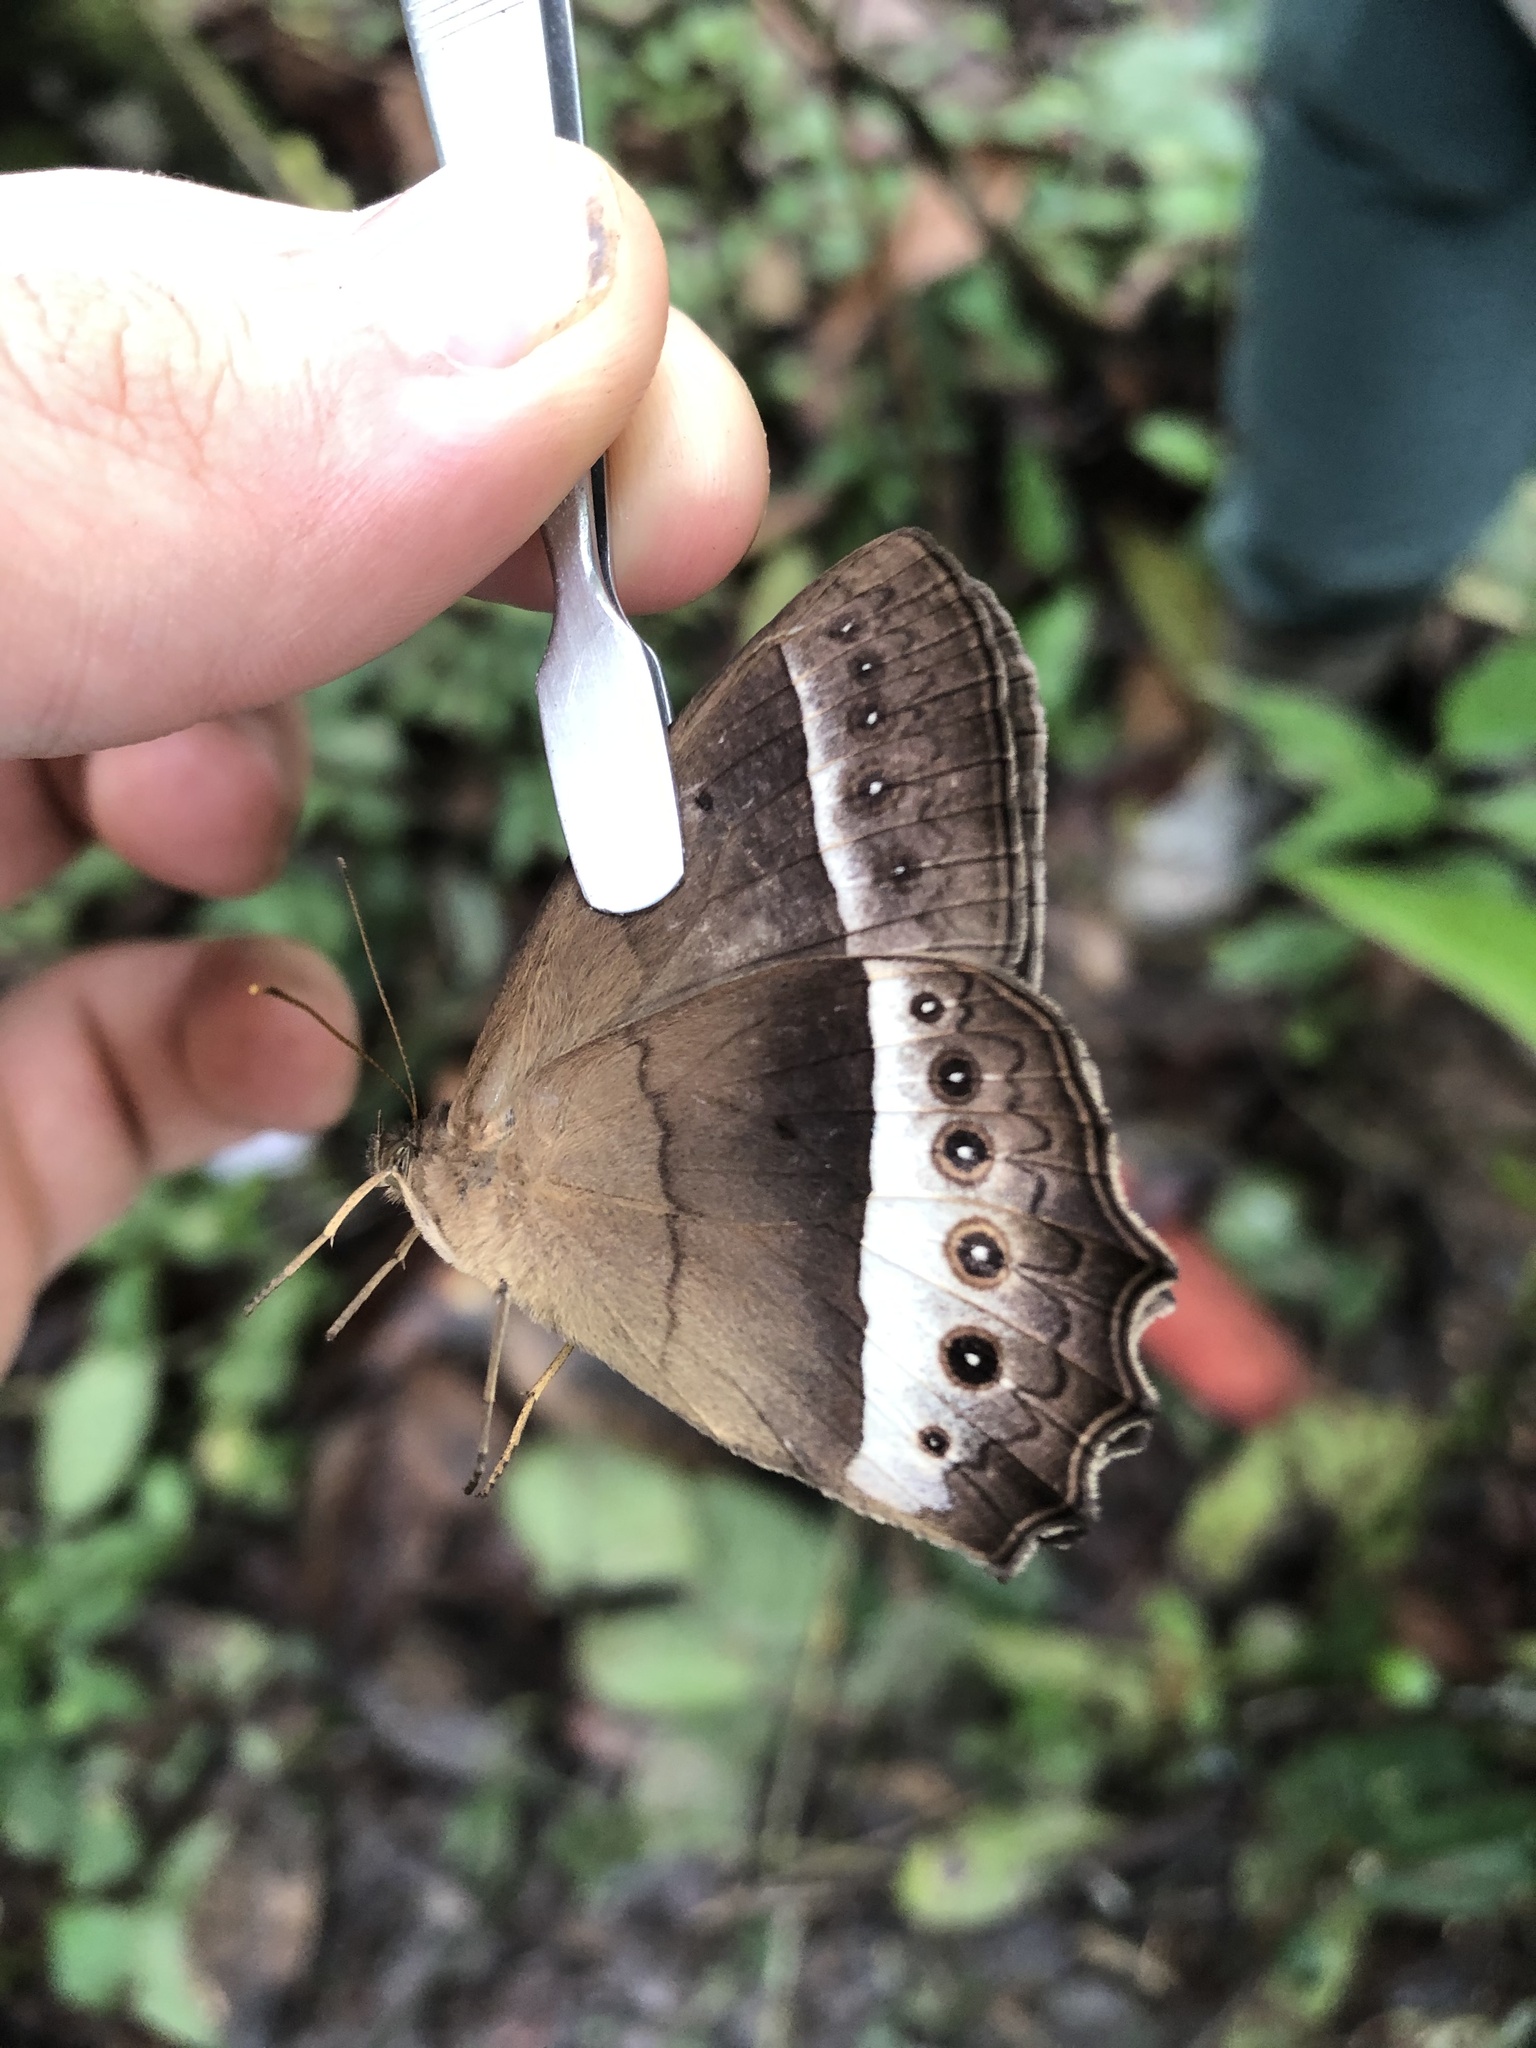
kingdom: Animalia
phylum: Arthropoda
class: Insecta
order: Lepidoptera
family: Nymphalidae
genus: Harjesia
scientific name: Harjesia blanda
